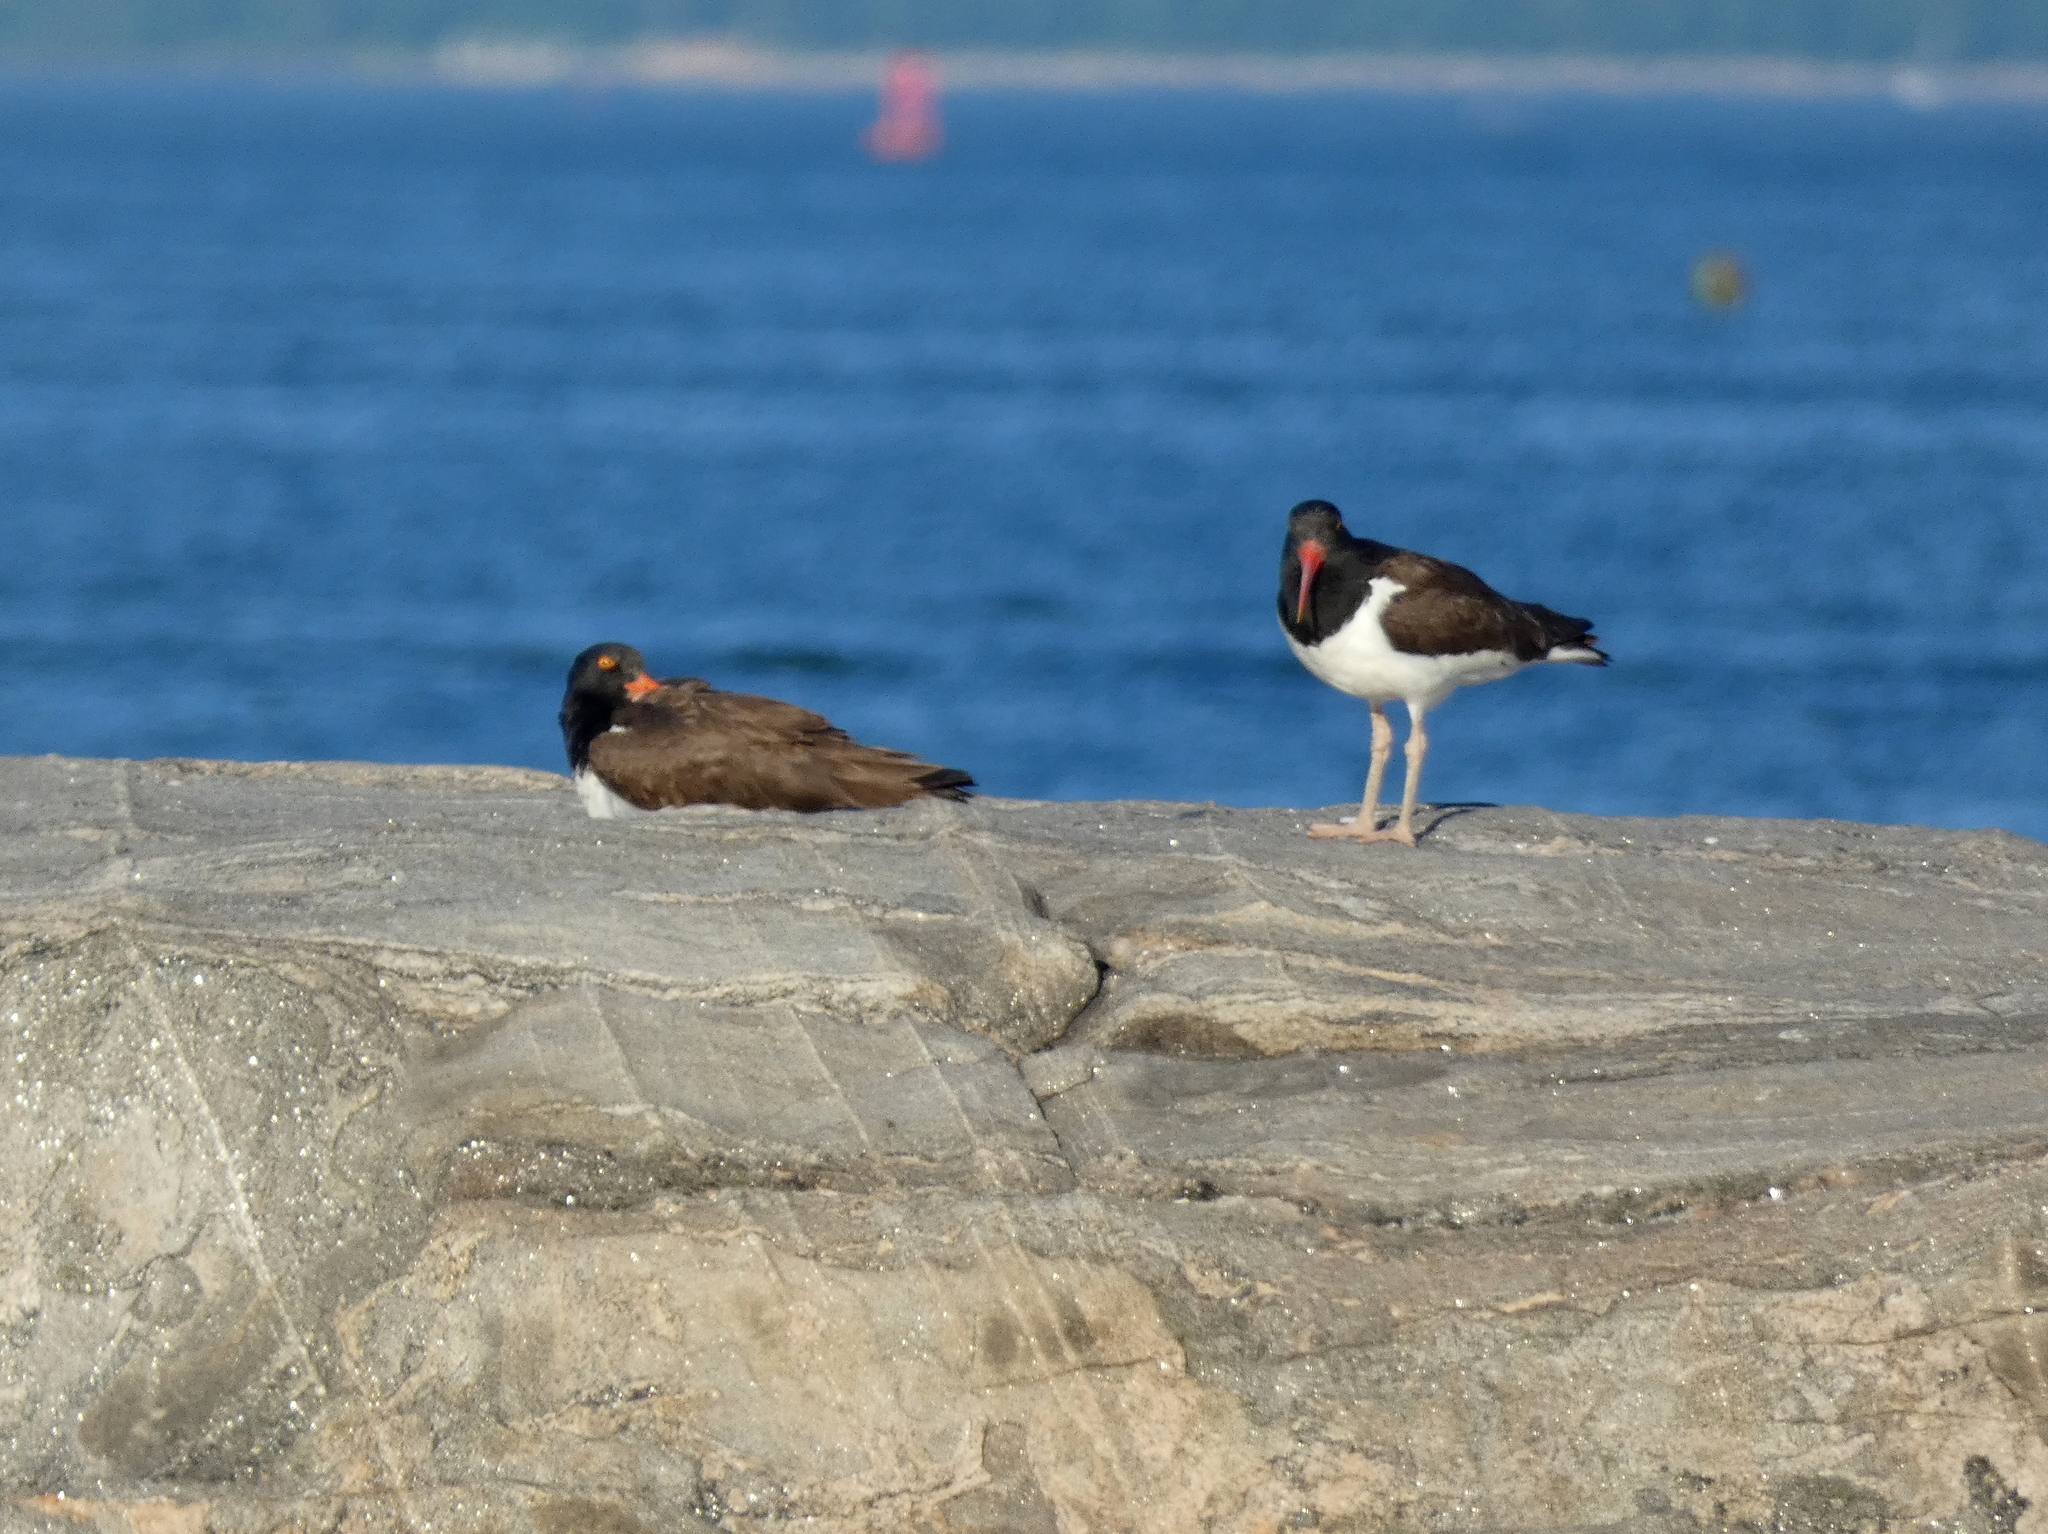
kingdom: Animalia
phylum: Chordata
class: Aves
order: Charadriiformes
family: Haematopodidae
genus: Haematopus
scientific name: Haematopus palliatus
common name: American oystercatcher
